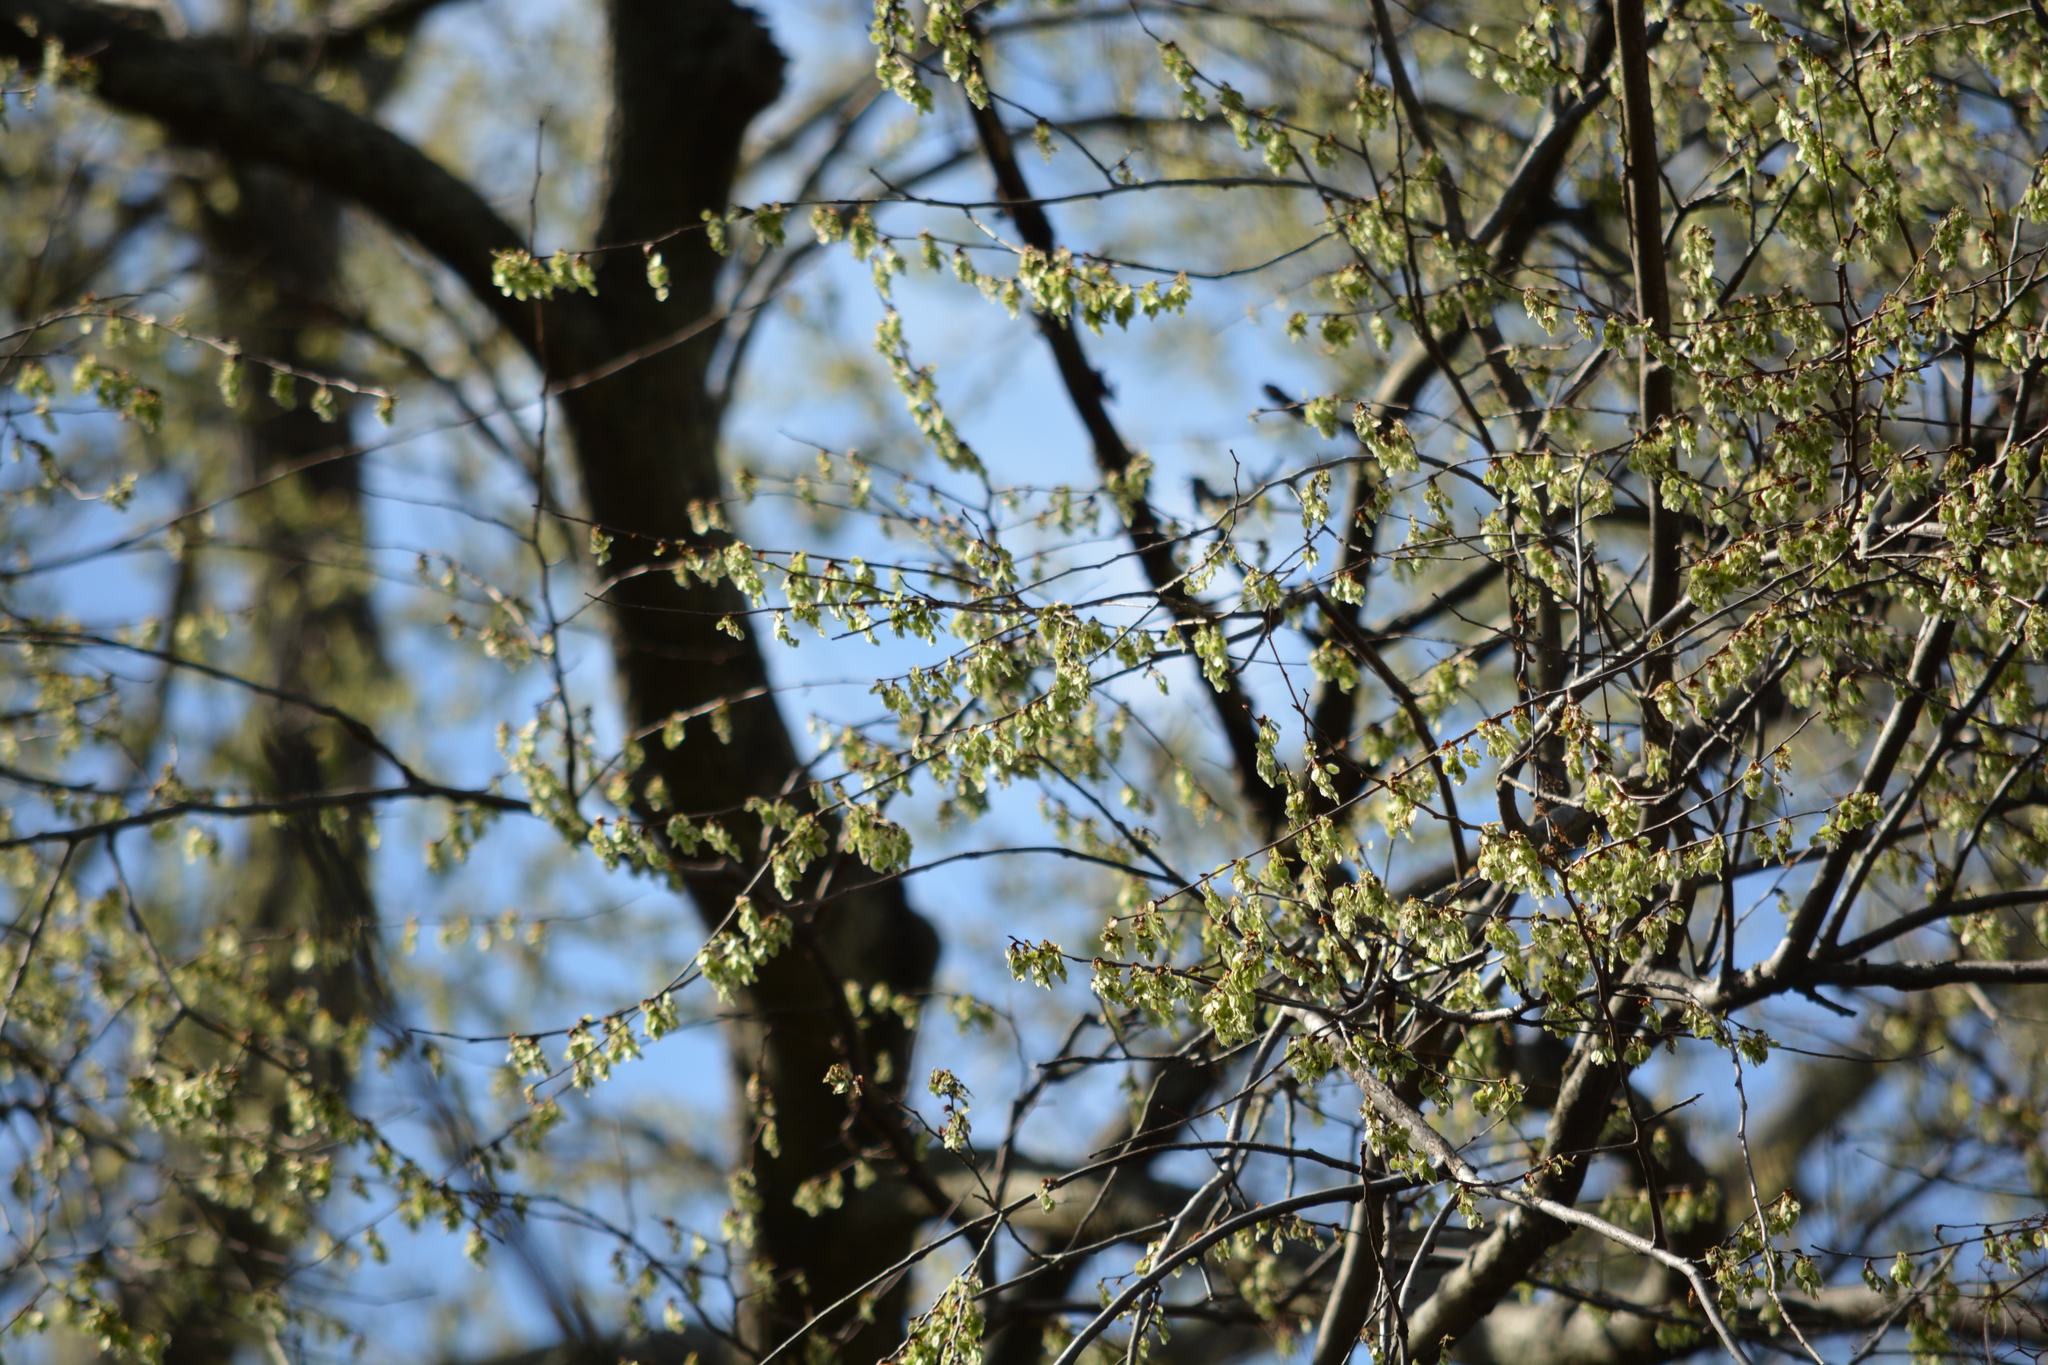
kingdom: Plantae
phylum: Tracheophyta
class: Magnoliopsida
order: Rosales
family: Ulmaceae
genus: Ulmus
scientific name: Ulmus americana
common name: American elm
